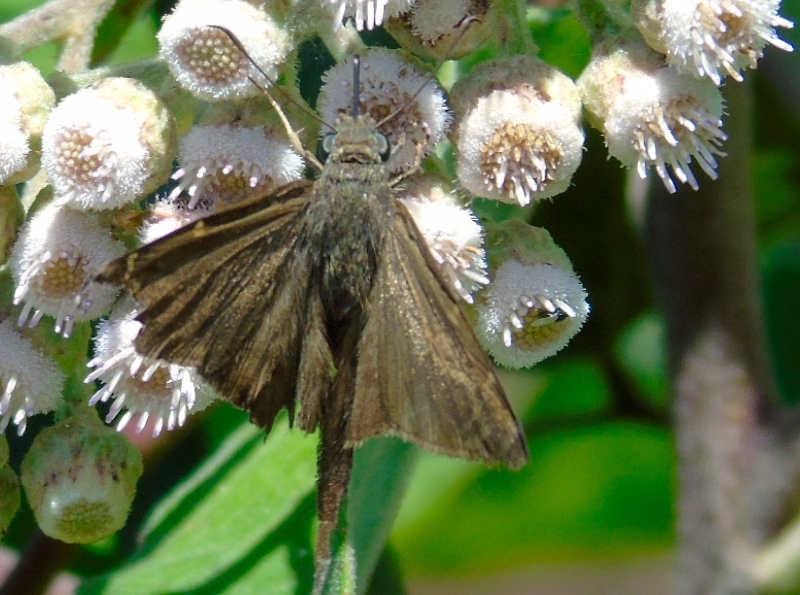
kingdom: Animalia
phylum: Arthropoda
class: Insecta
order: Lepidoptera
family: Hesperiidae
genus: Urbanus
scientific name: Urbanus simplicius
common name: Plain longtail
